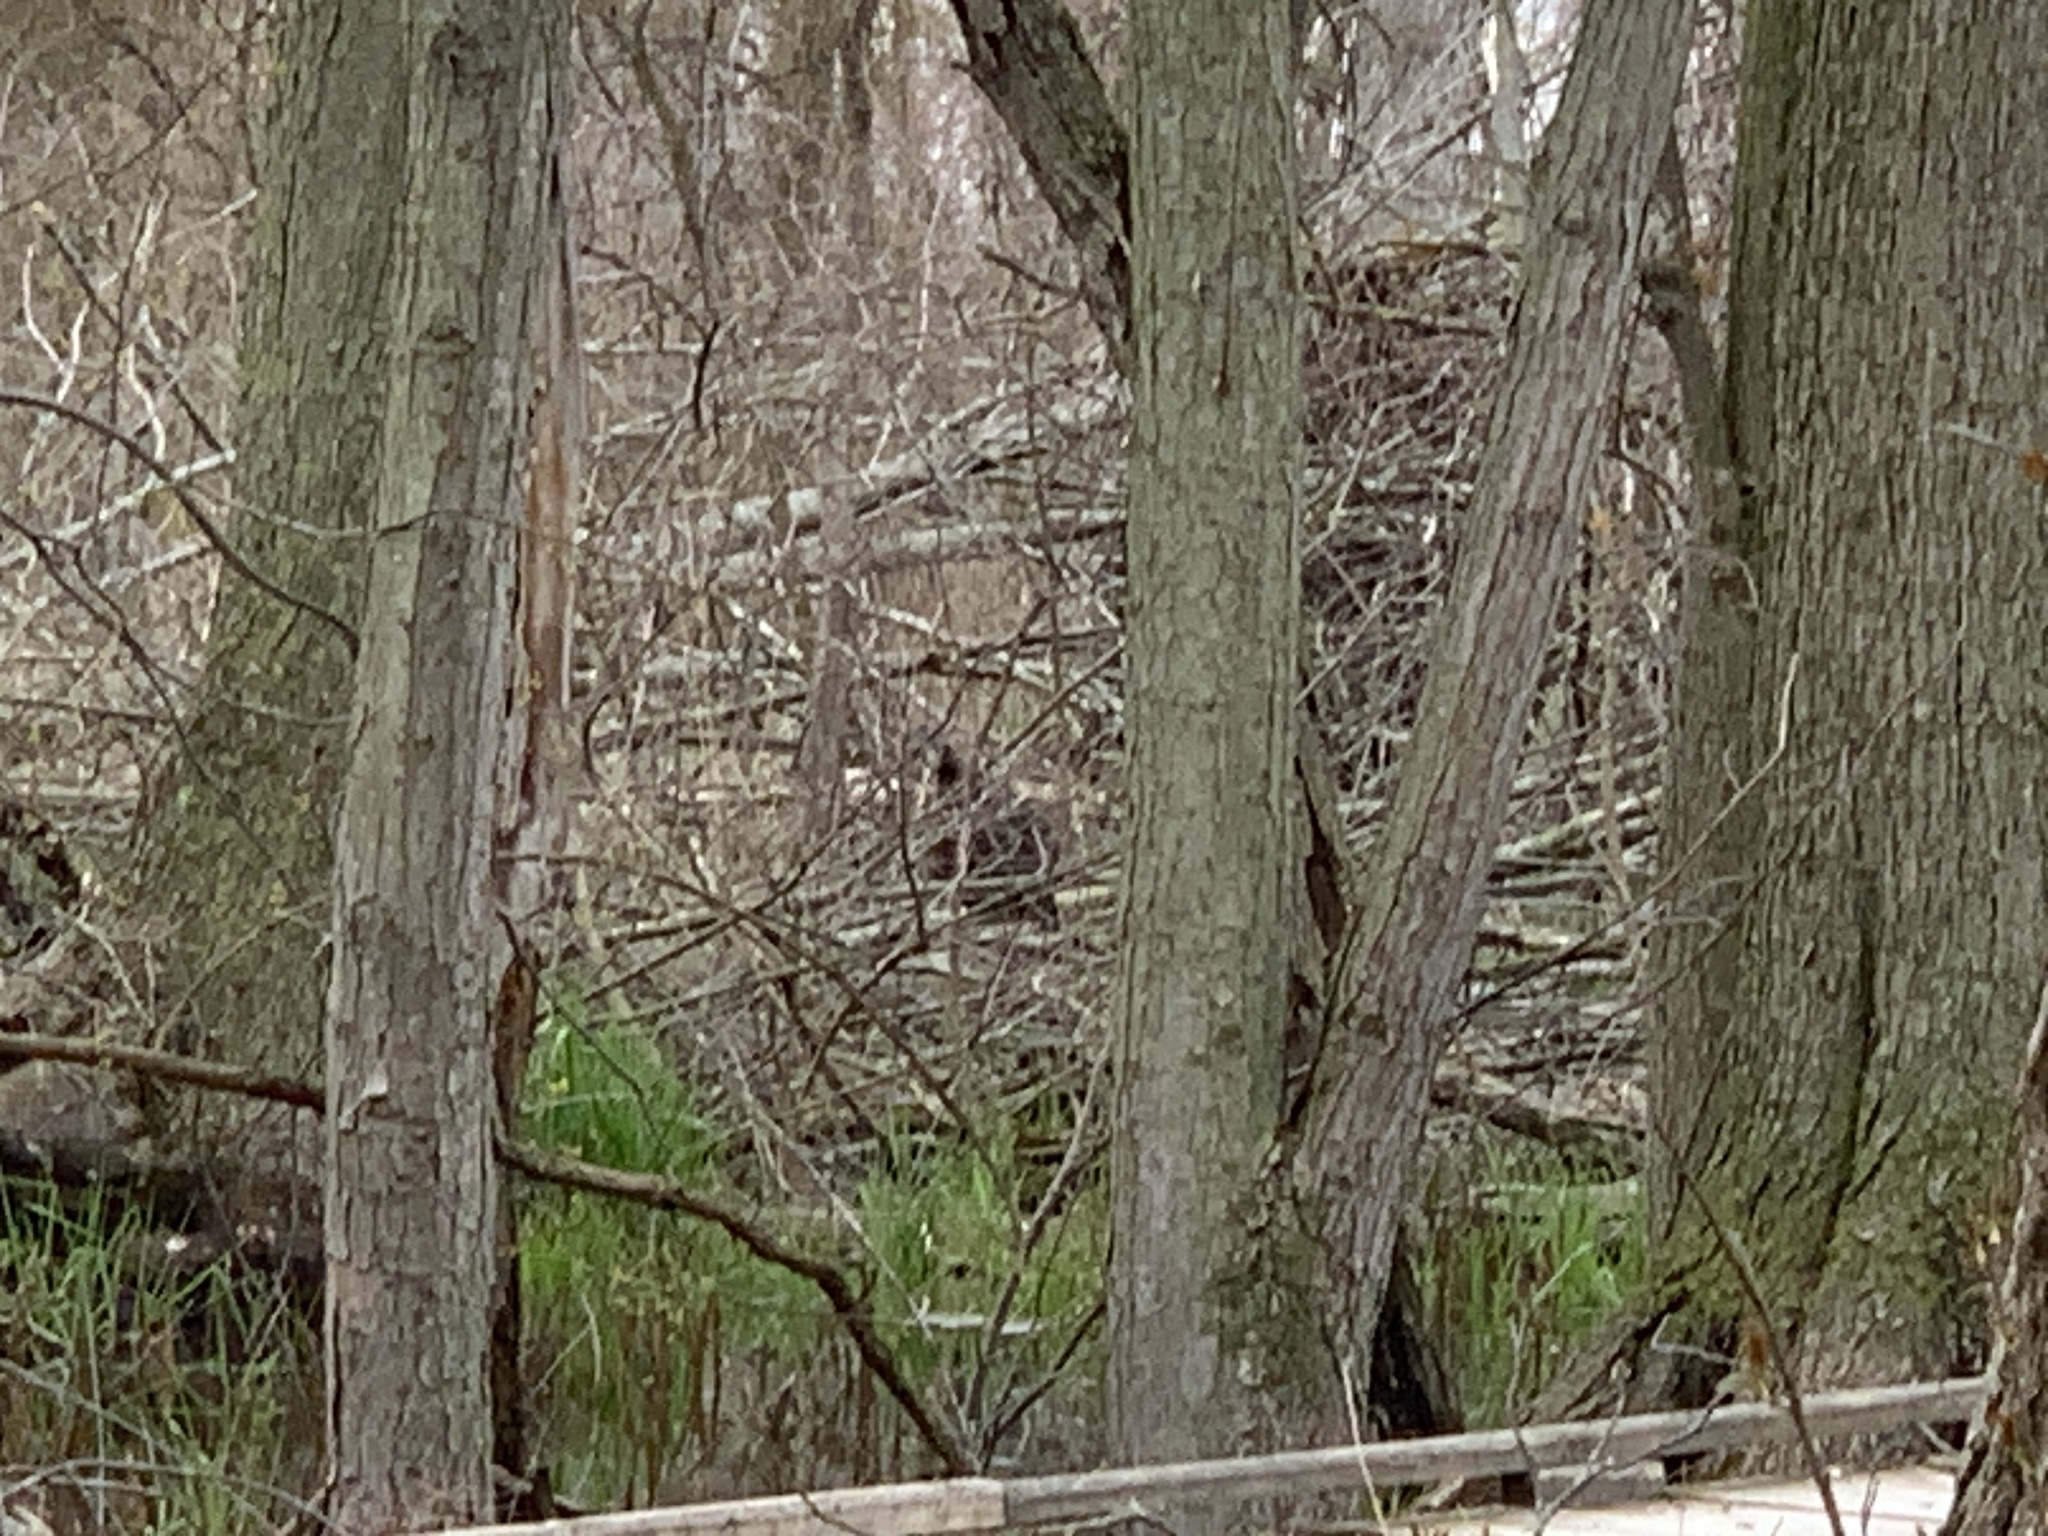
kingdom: Animalia
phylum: Chordata
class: Aves
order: Galliformes
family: Phasianidae
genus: Meleagris
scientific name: Meleagris gallopavo
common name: Wild turkey
